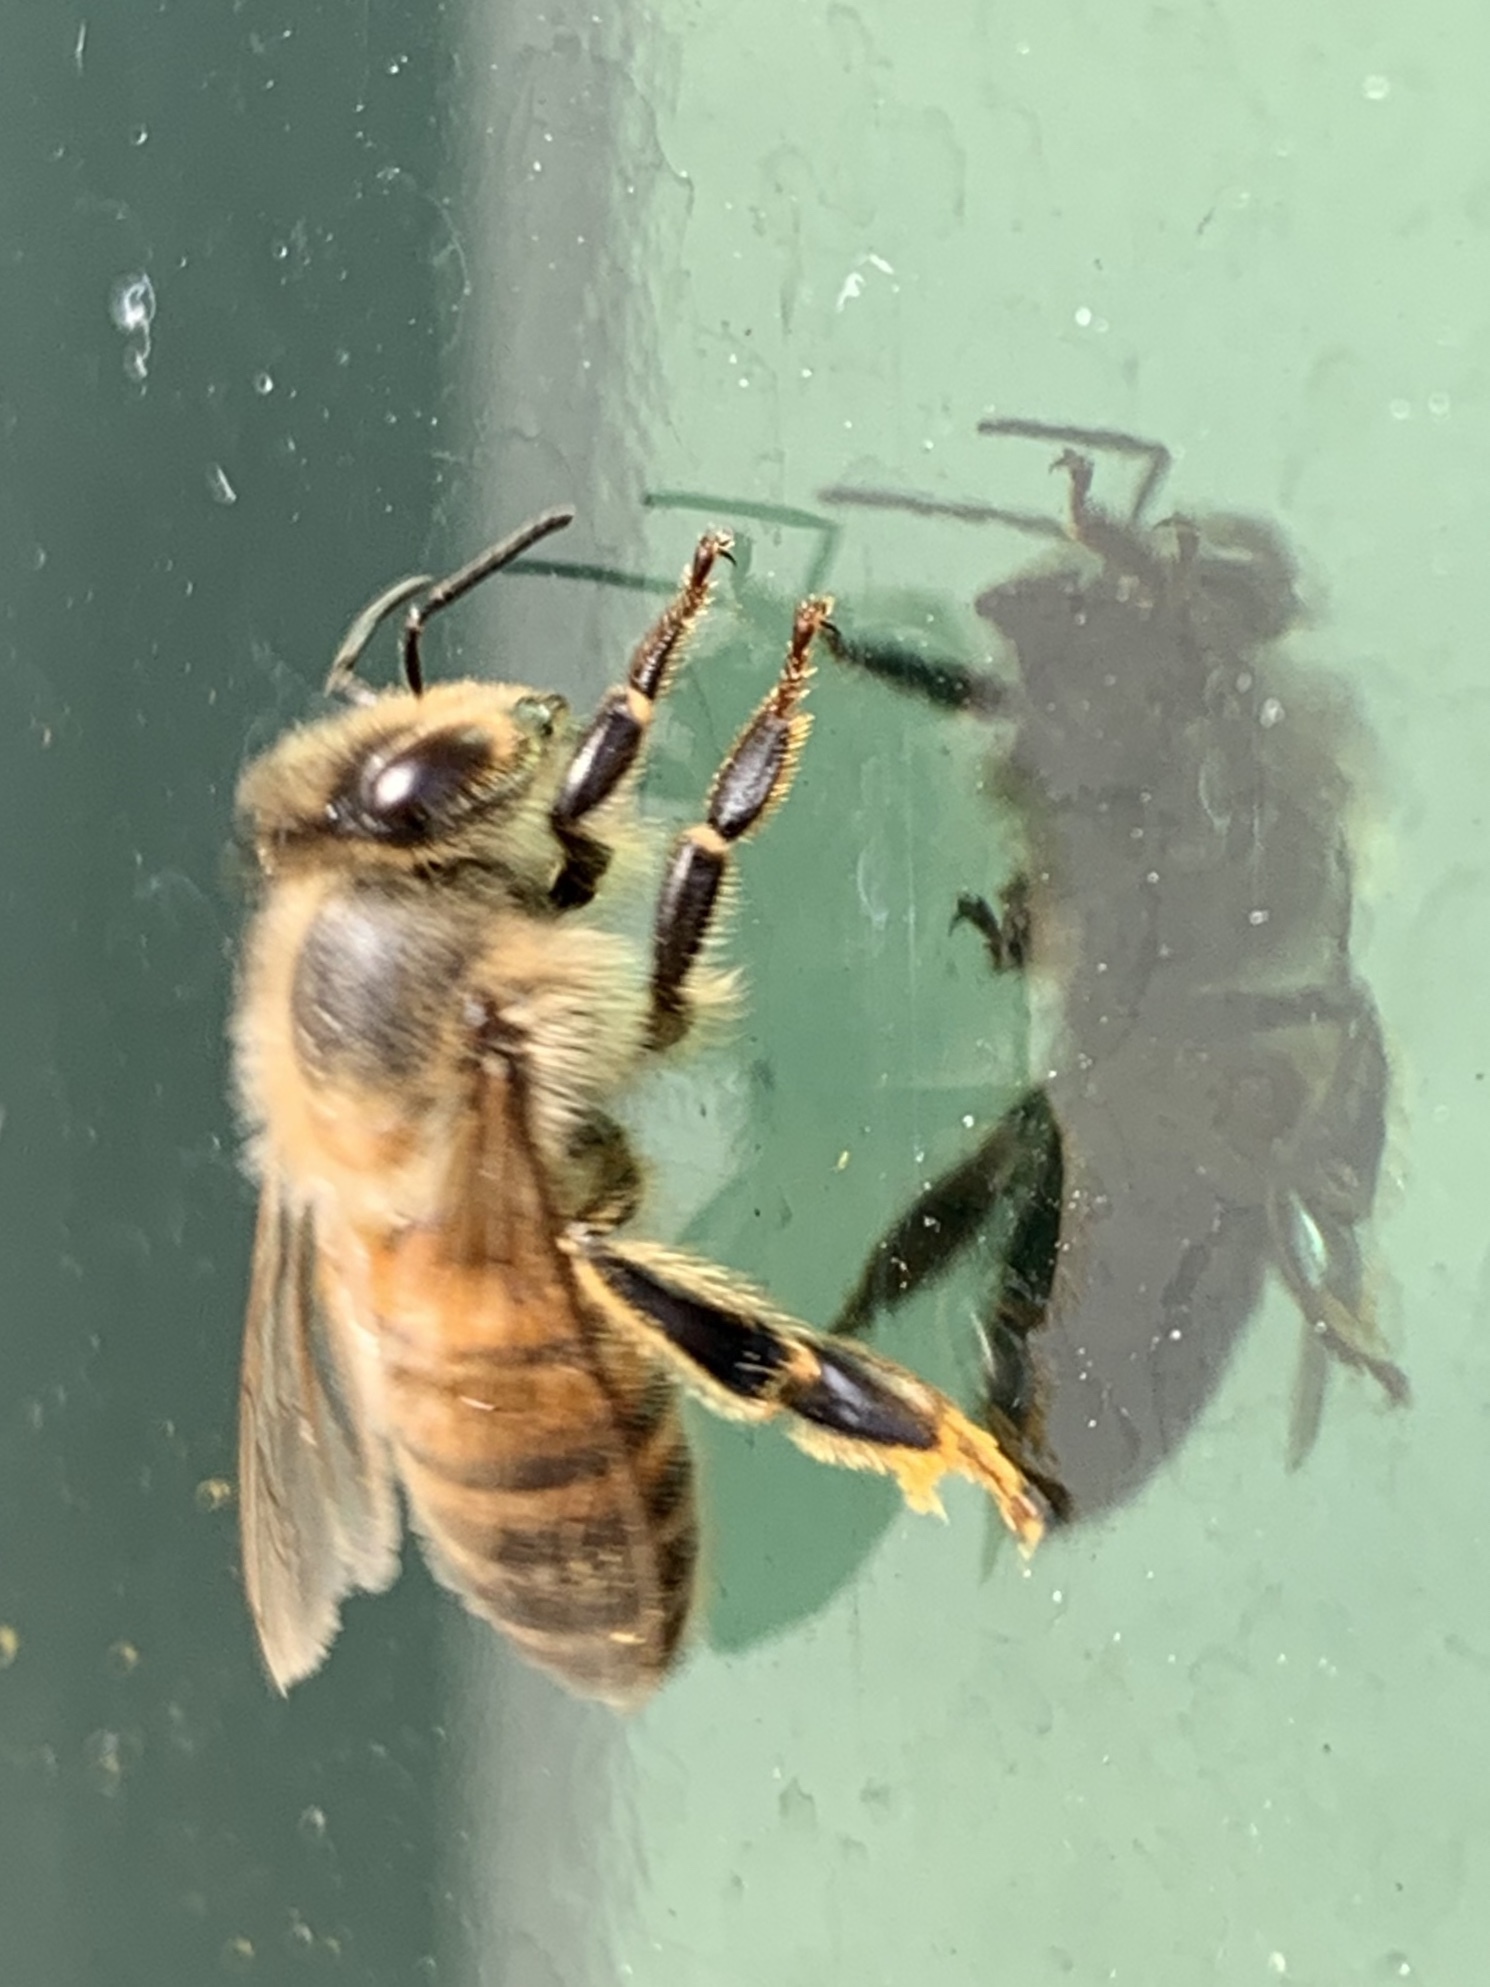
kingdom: Animalia
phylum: Arthropoda
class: Insecta
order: Hymenoptera
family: Apidae
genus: Apis
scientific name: Apis mellifera
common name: Honey bee
